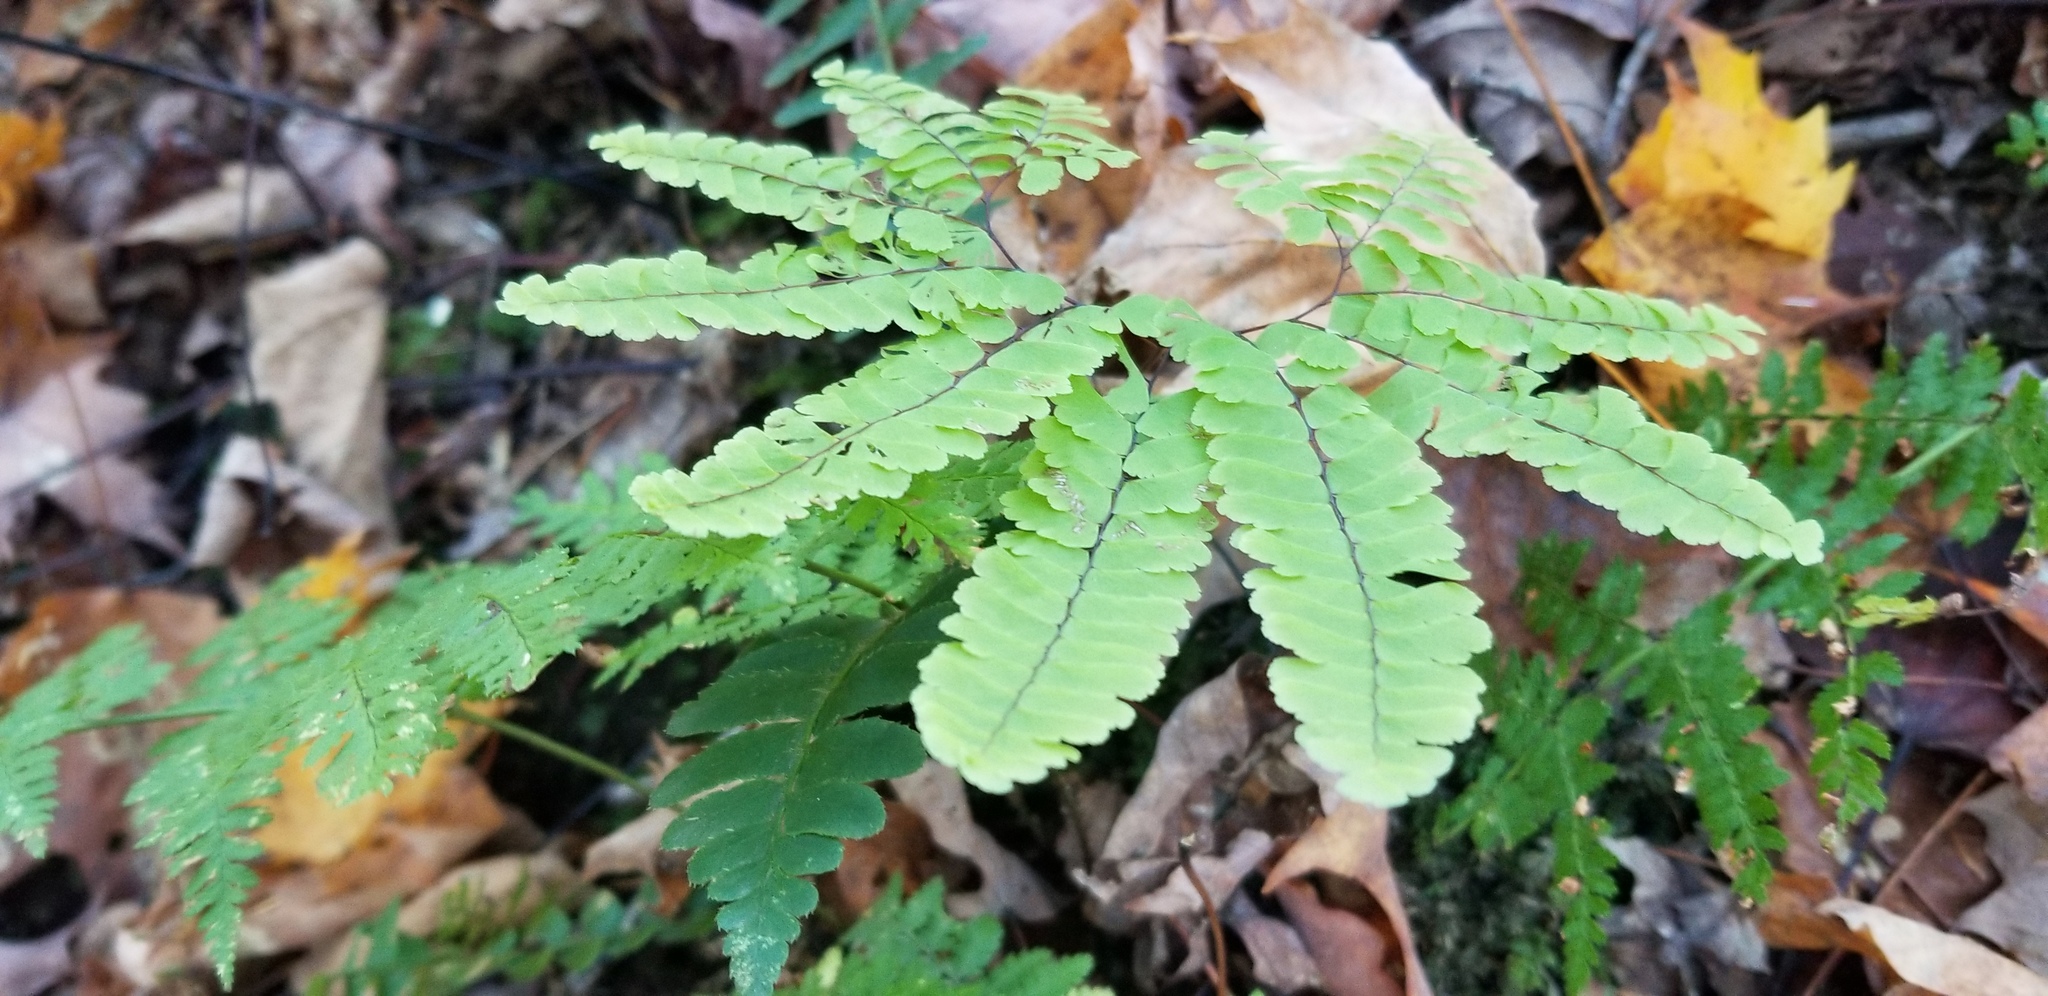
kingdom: Plantae
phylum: Tracheophyta
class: Polypodiopsida
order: Polypodiales
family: Pteridaceae
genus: Adiantum
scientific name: Adiantum pedatum
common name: Five-finger fern
